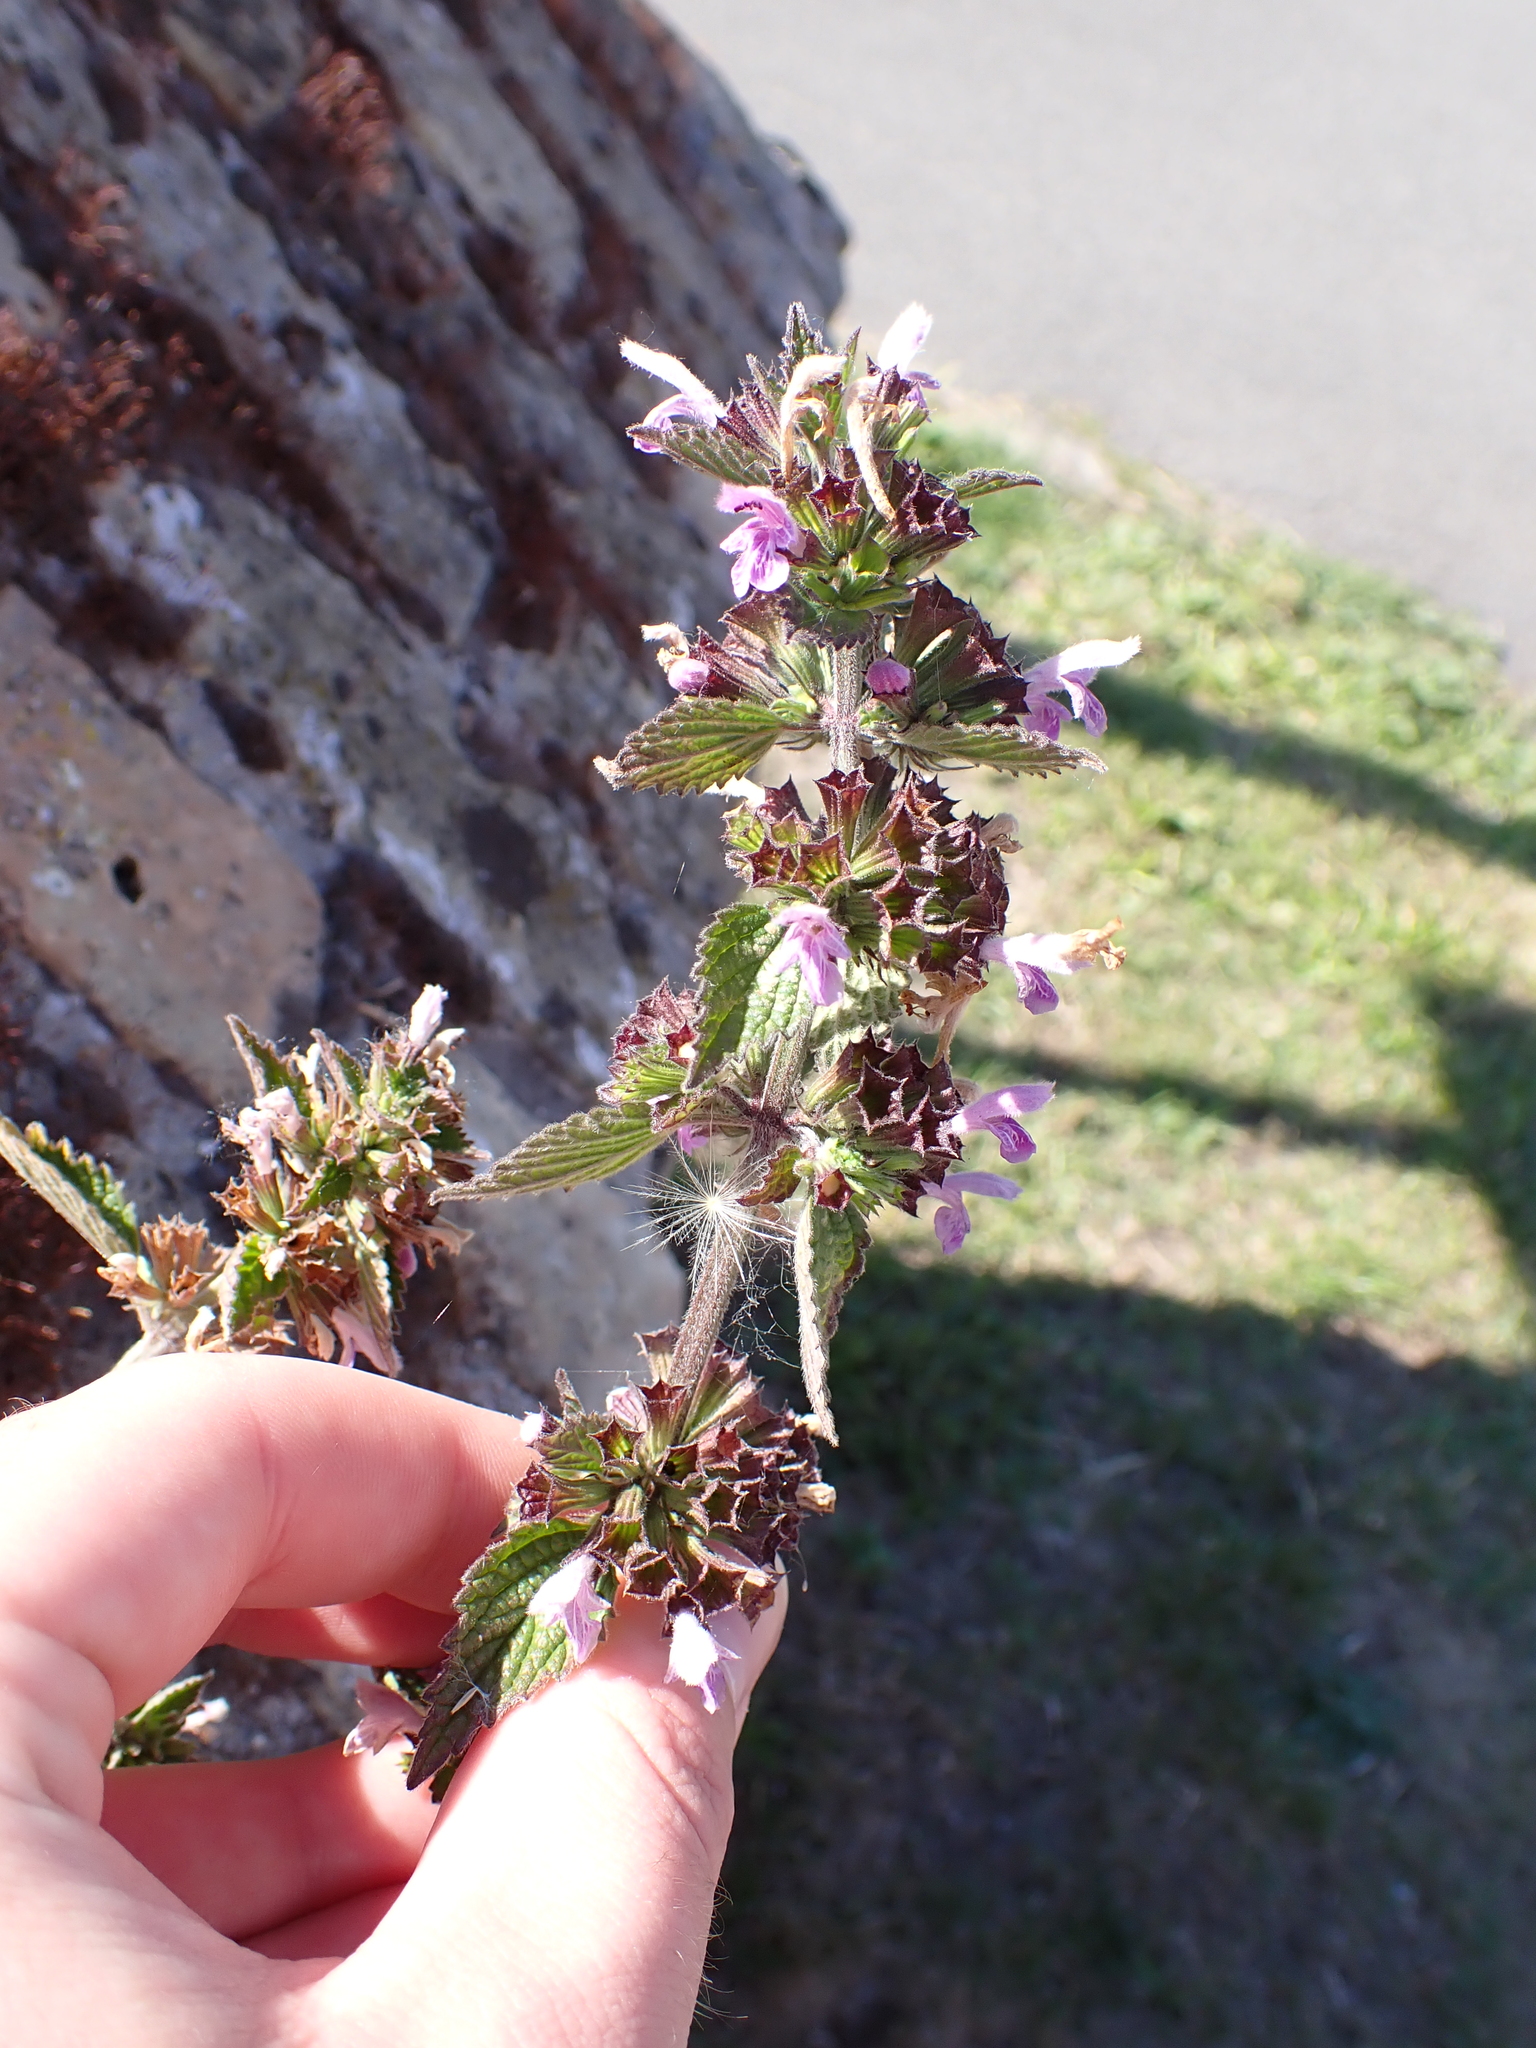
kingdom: Plantae
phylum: Tracheophyta
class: Magnoliopsida
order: Lamiales
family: Lamiaceae
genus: Ballota
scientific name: Ballota nigra
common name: Black horehound
